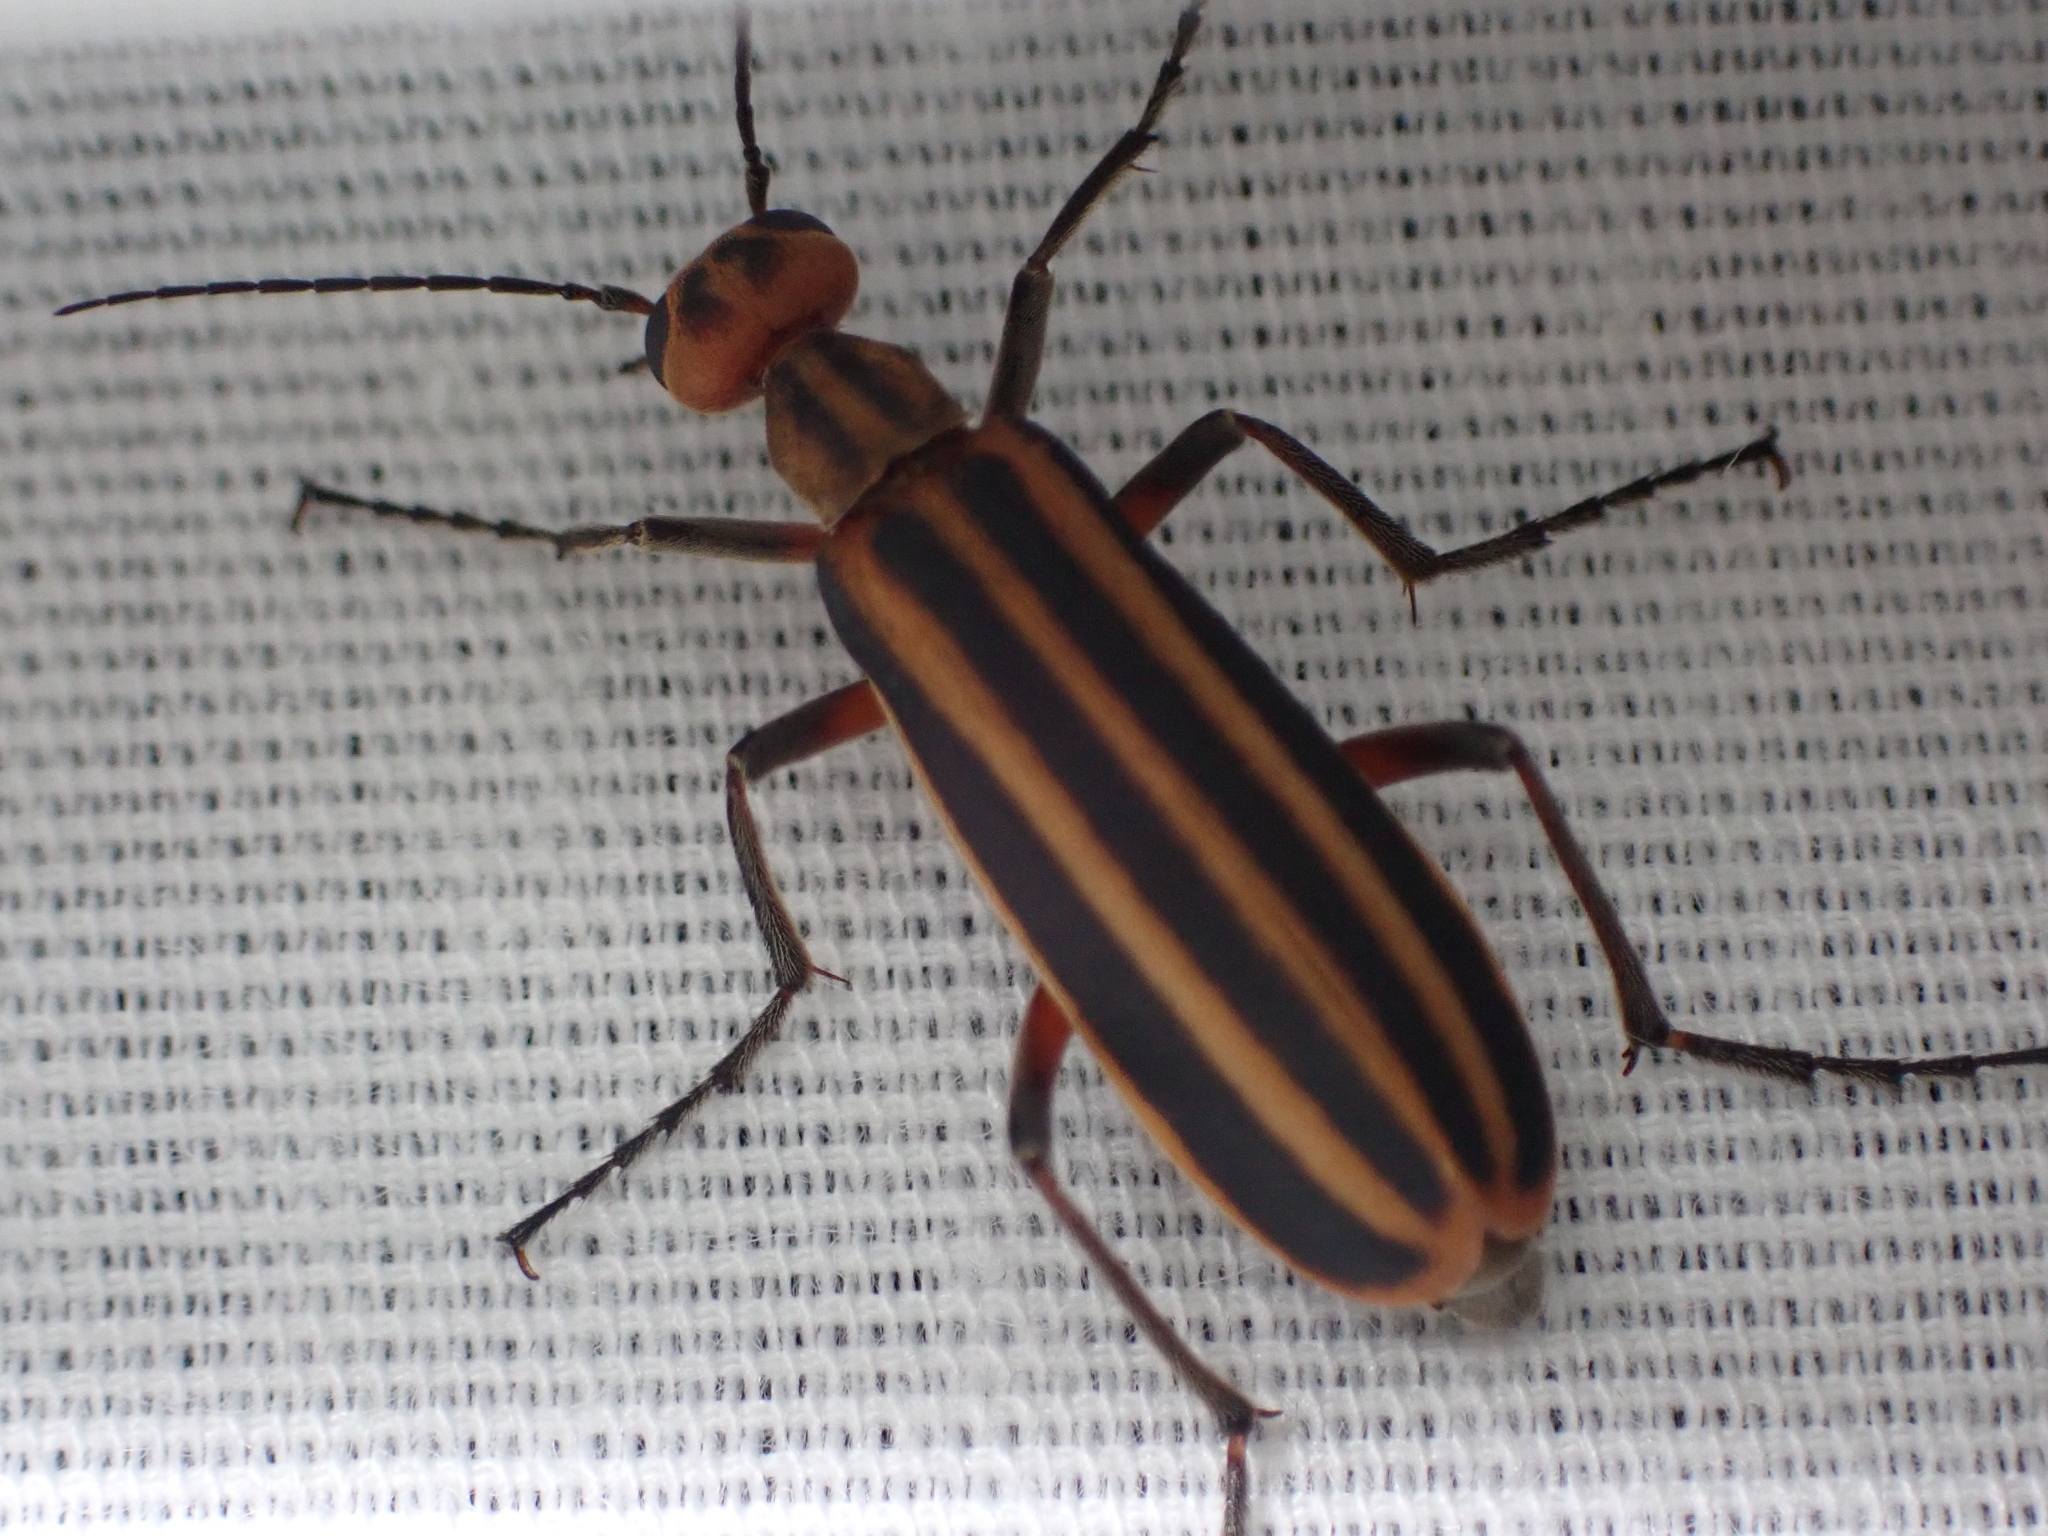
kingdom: Animalia
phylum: Arthropoda
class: Insecta
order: Coleoptera
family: Meloidae
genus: Epicauta
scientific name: Epicauta vittata
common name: Old-fashioned potato beetle
